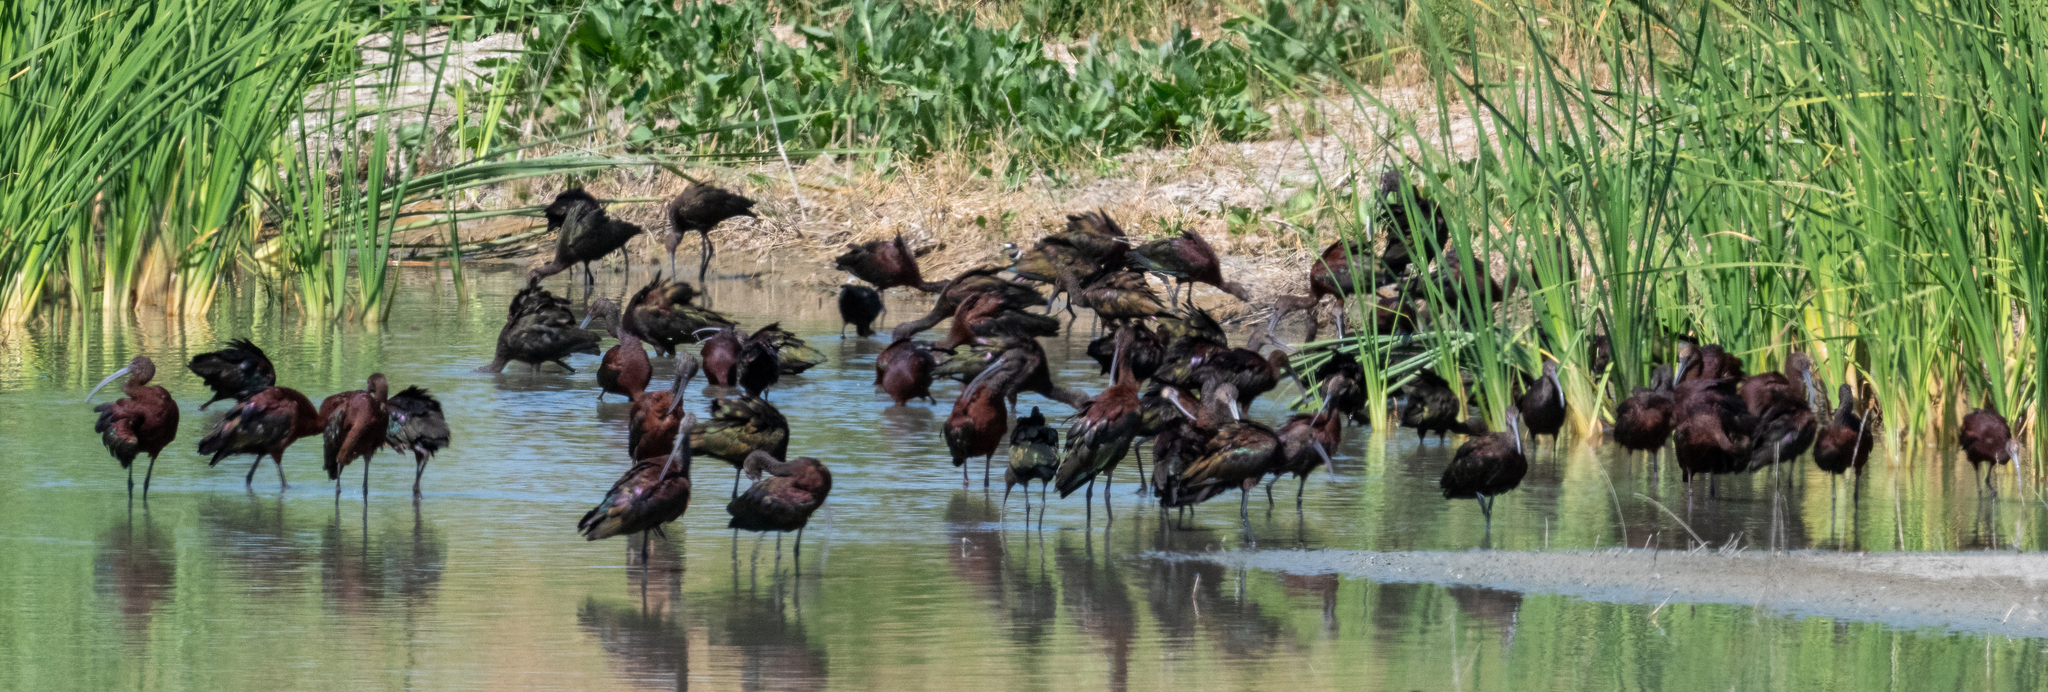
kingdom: Animalia
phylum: Chordata
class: Aves
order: Pelecaniformes
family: Threskiornithidae
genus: Plegadis
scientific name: Plegadis chihi
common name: White-faced ibis
